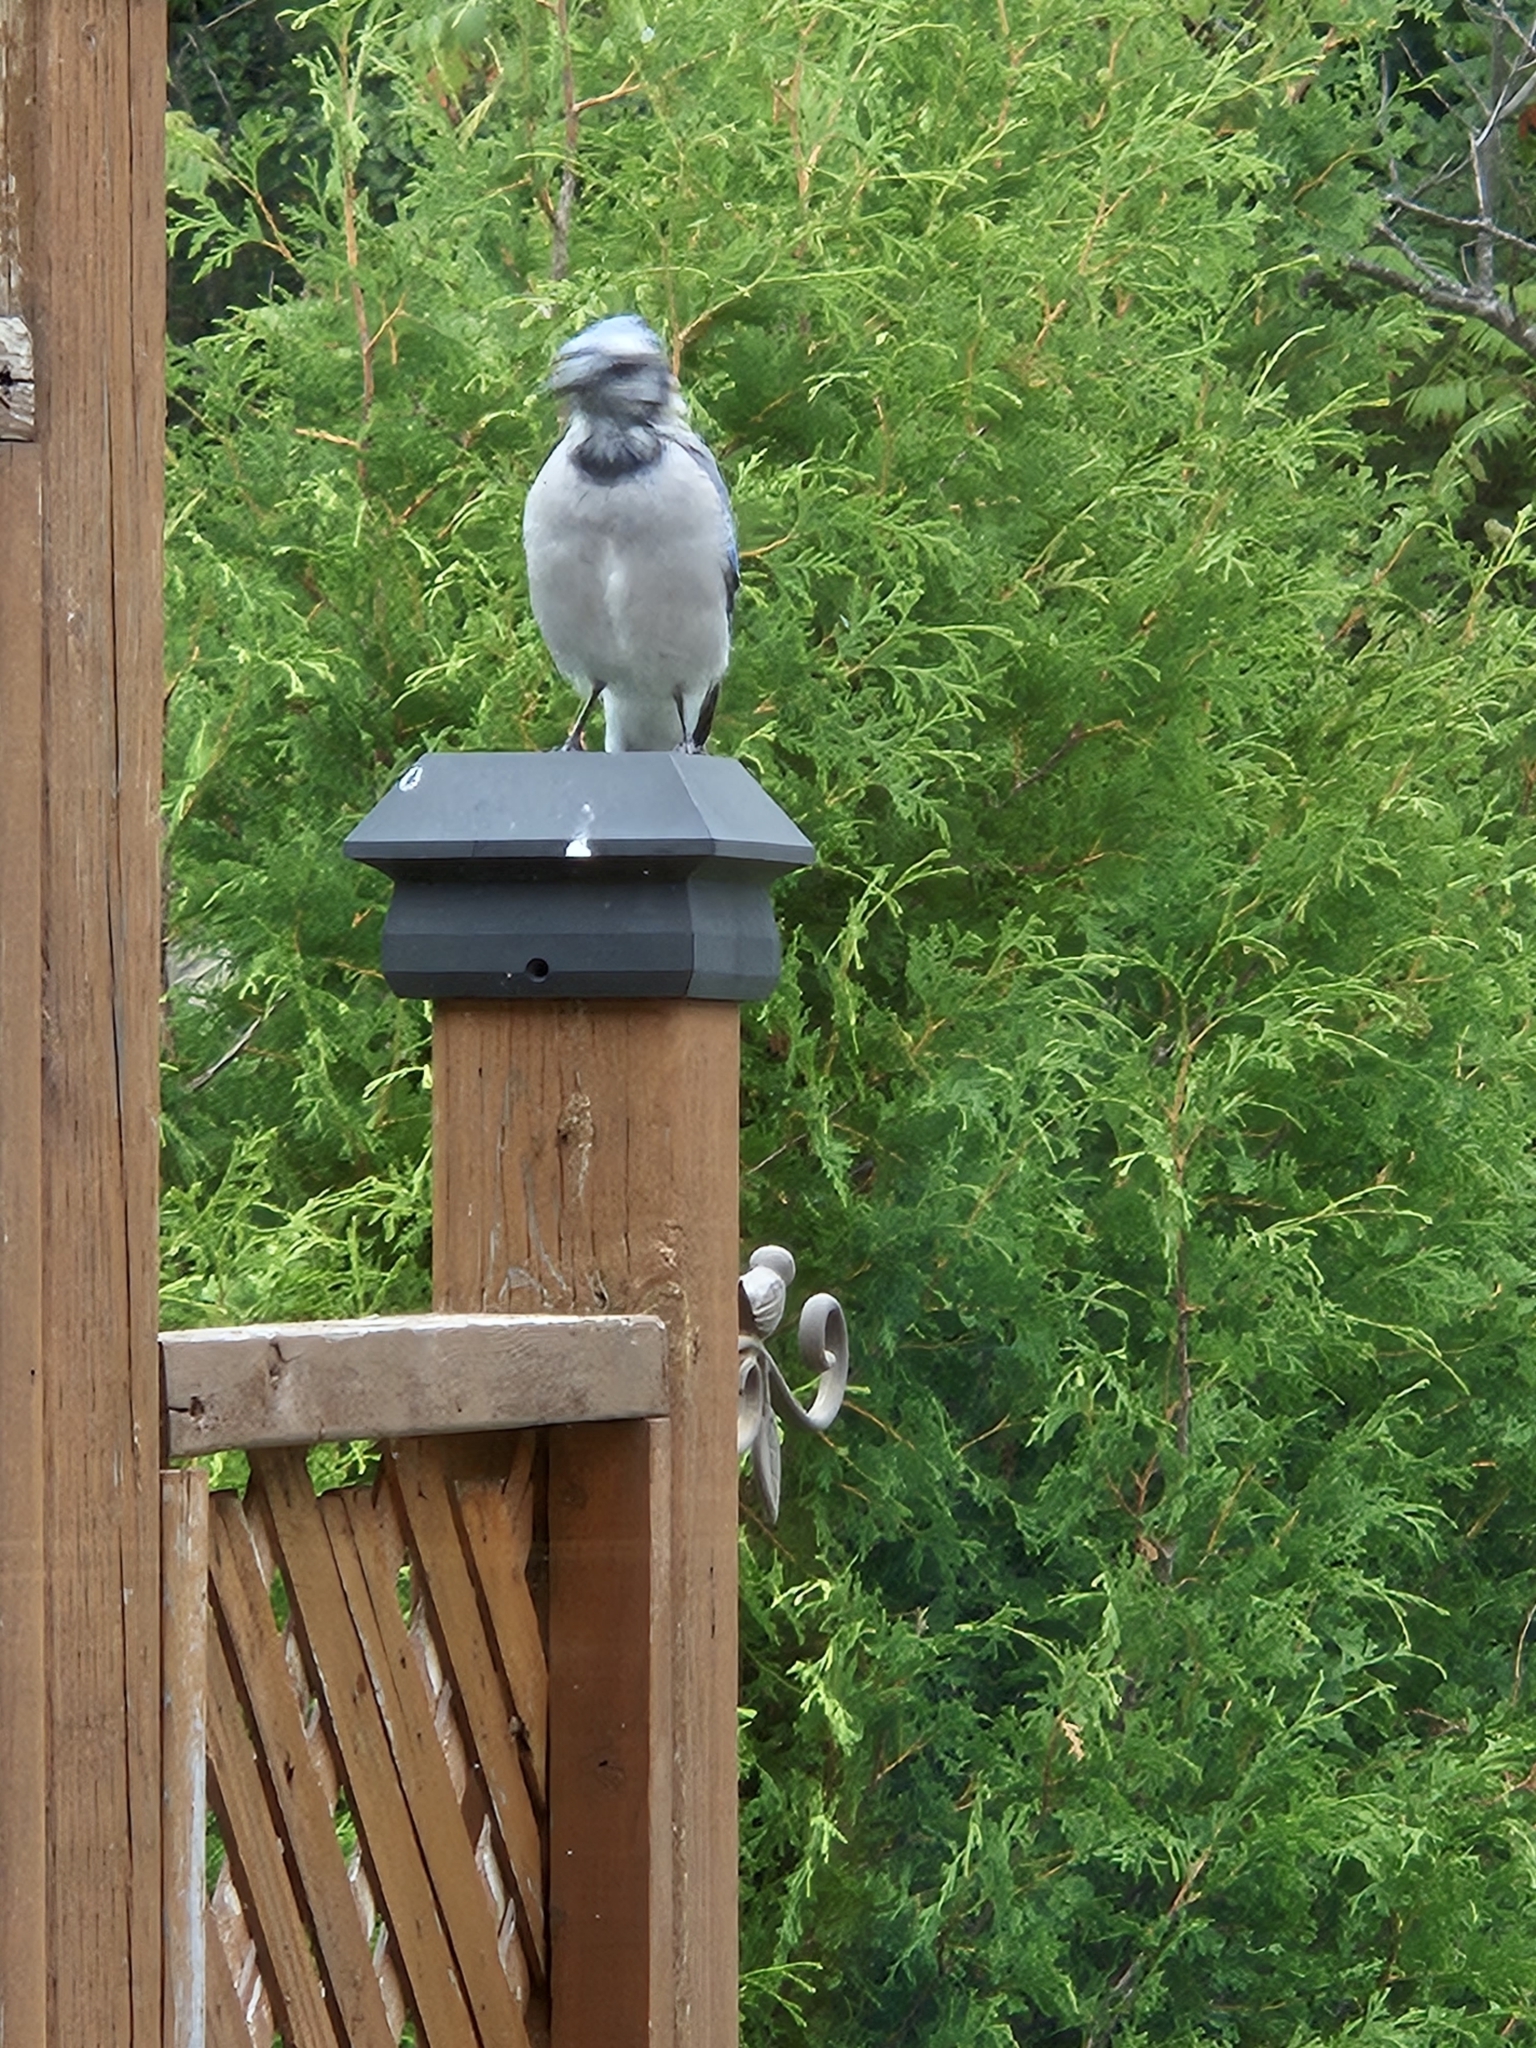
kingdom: Animalia
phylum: Chordata
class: Aves
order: Passeriformes
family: Corvidae
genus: Cyanocitta
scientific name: Cyanocitta cristata
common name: Blue jay
